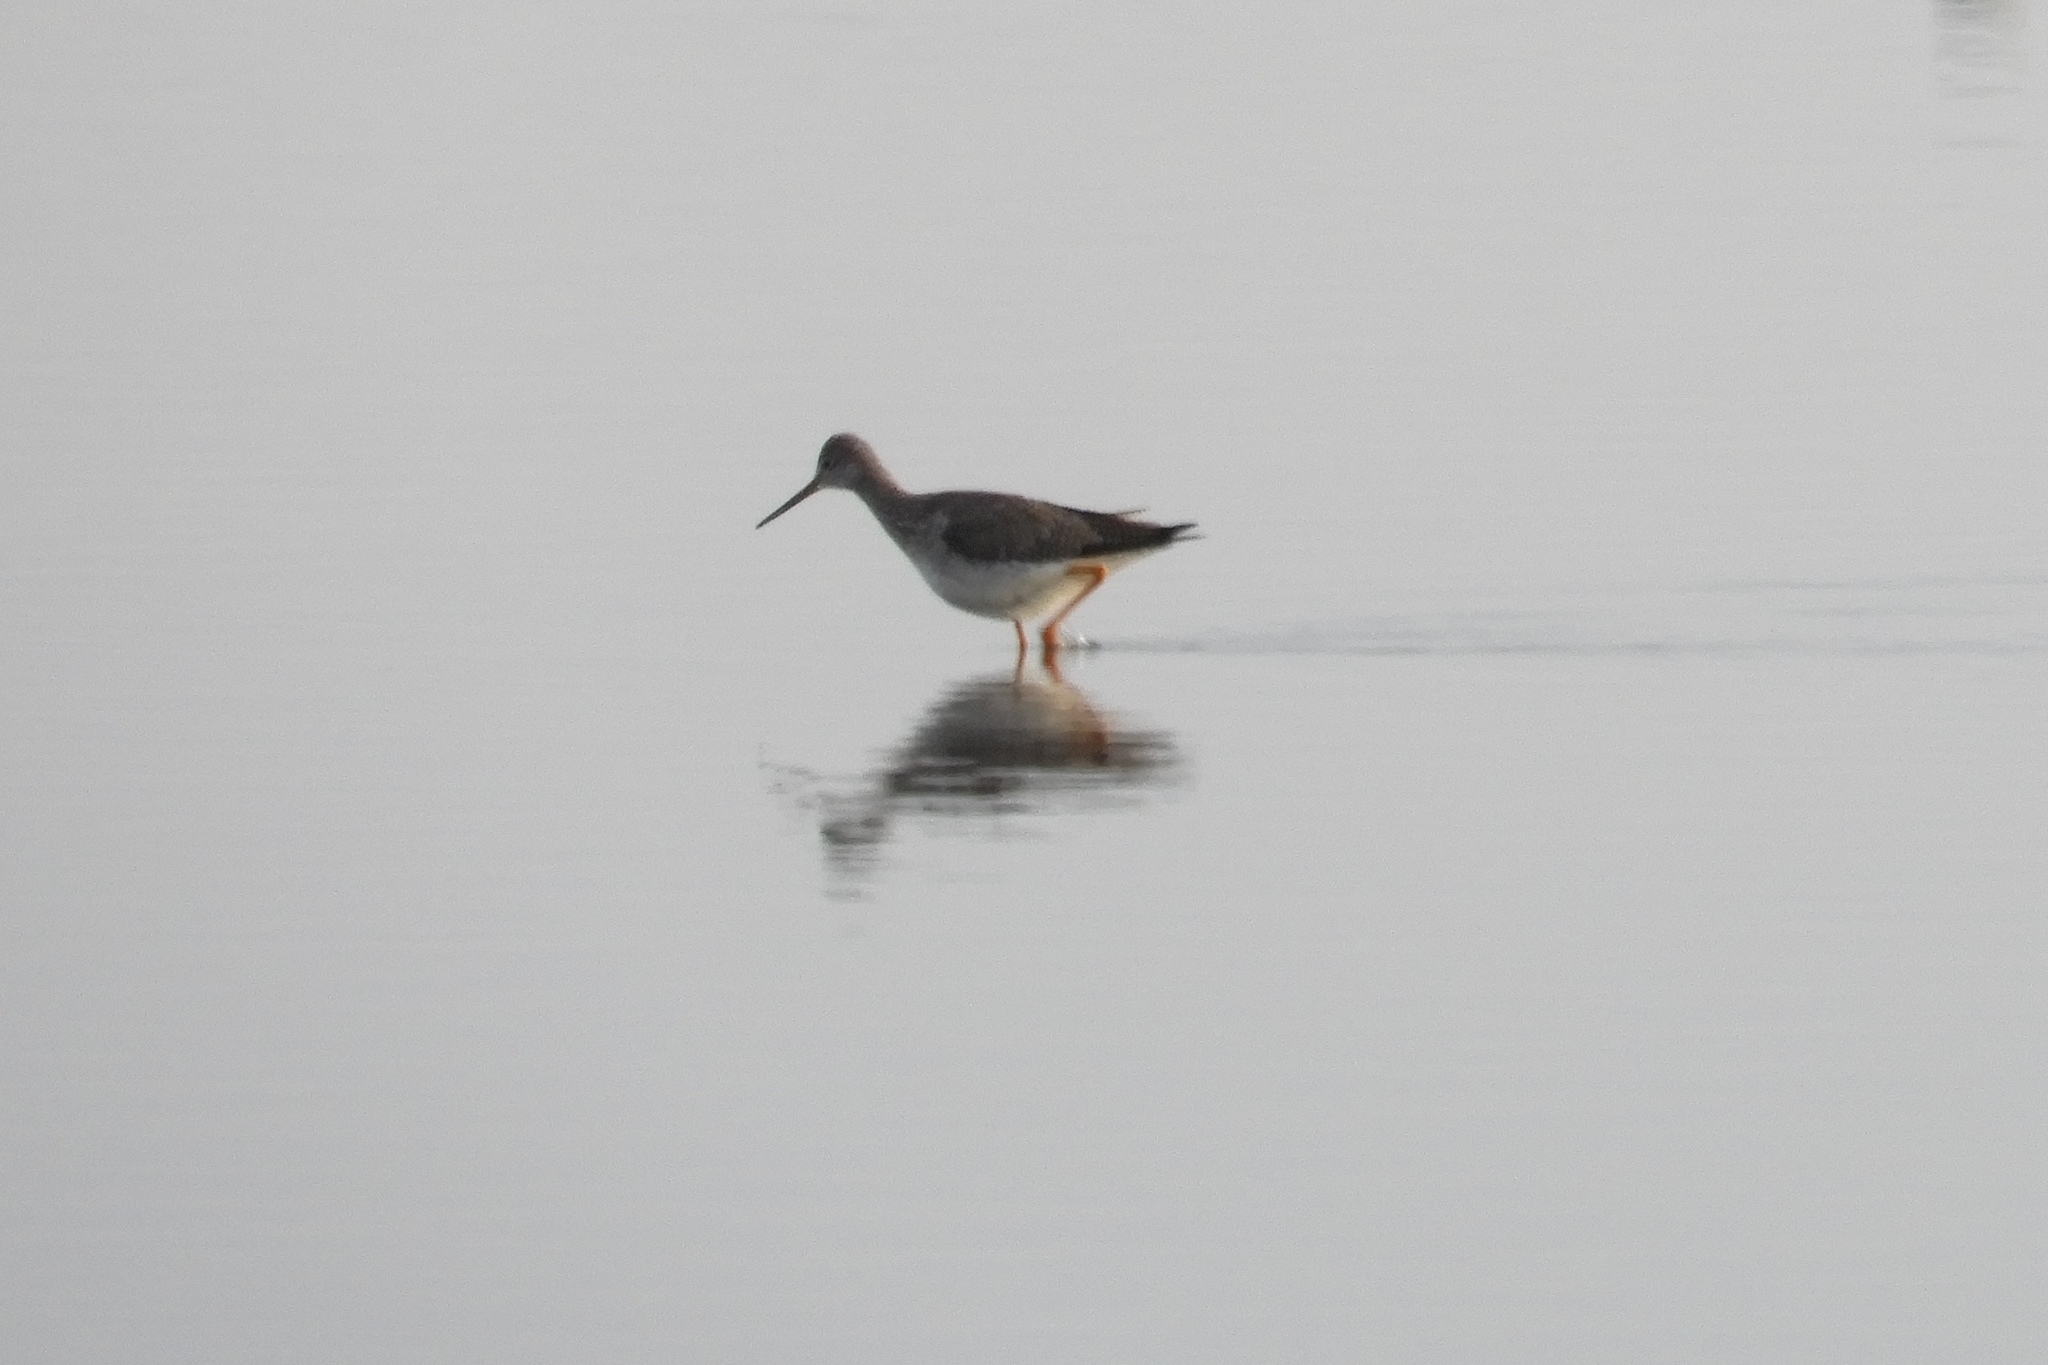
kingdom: Animalia
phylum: Chordata
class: Aves
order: Charadriiformes
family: Scolopacidae
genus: Tringa
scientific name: Tringa melanoleuca
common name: Greater yellowlegs
